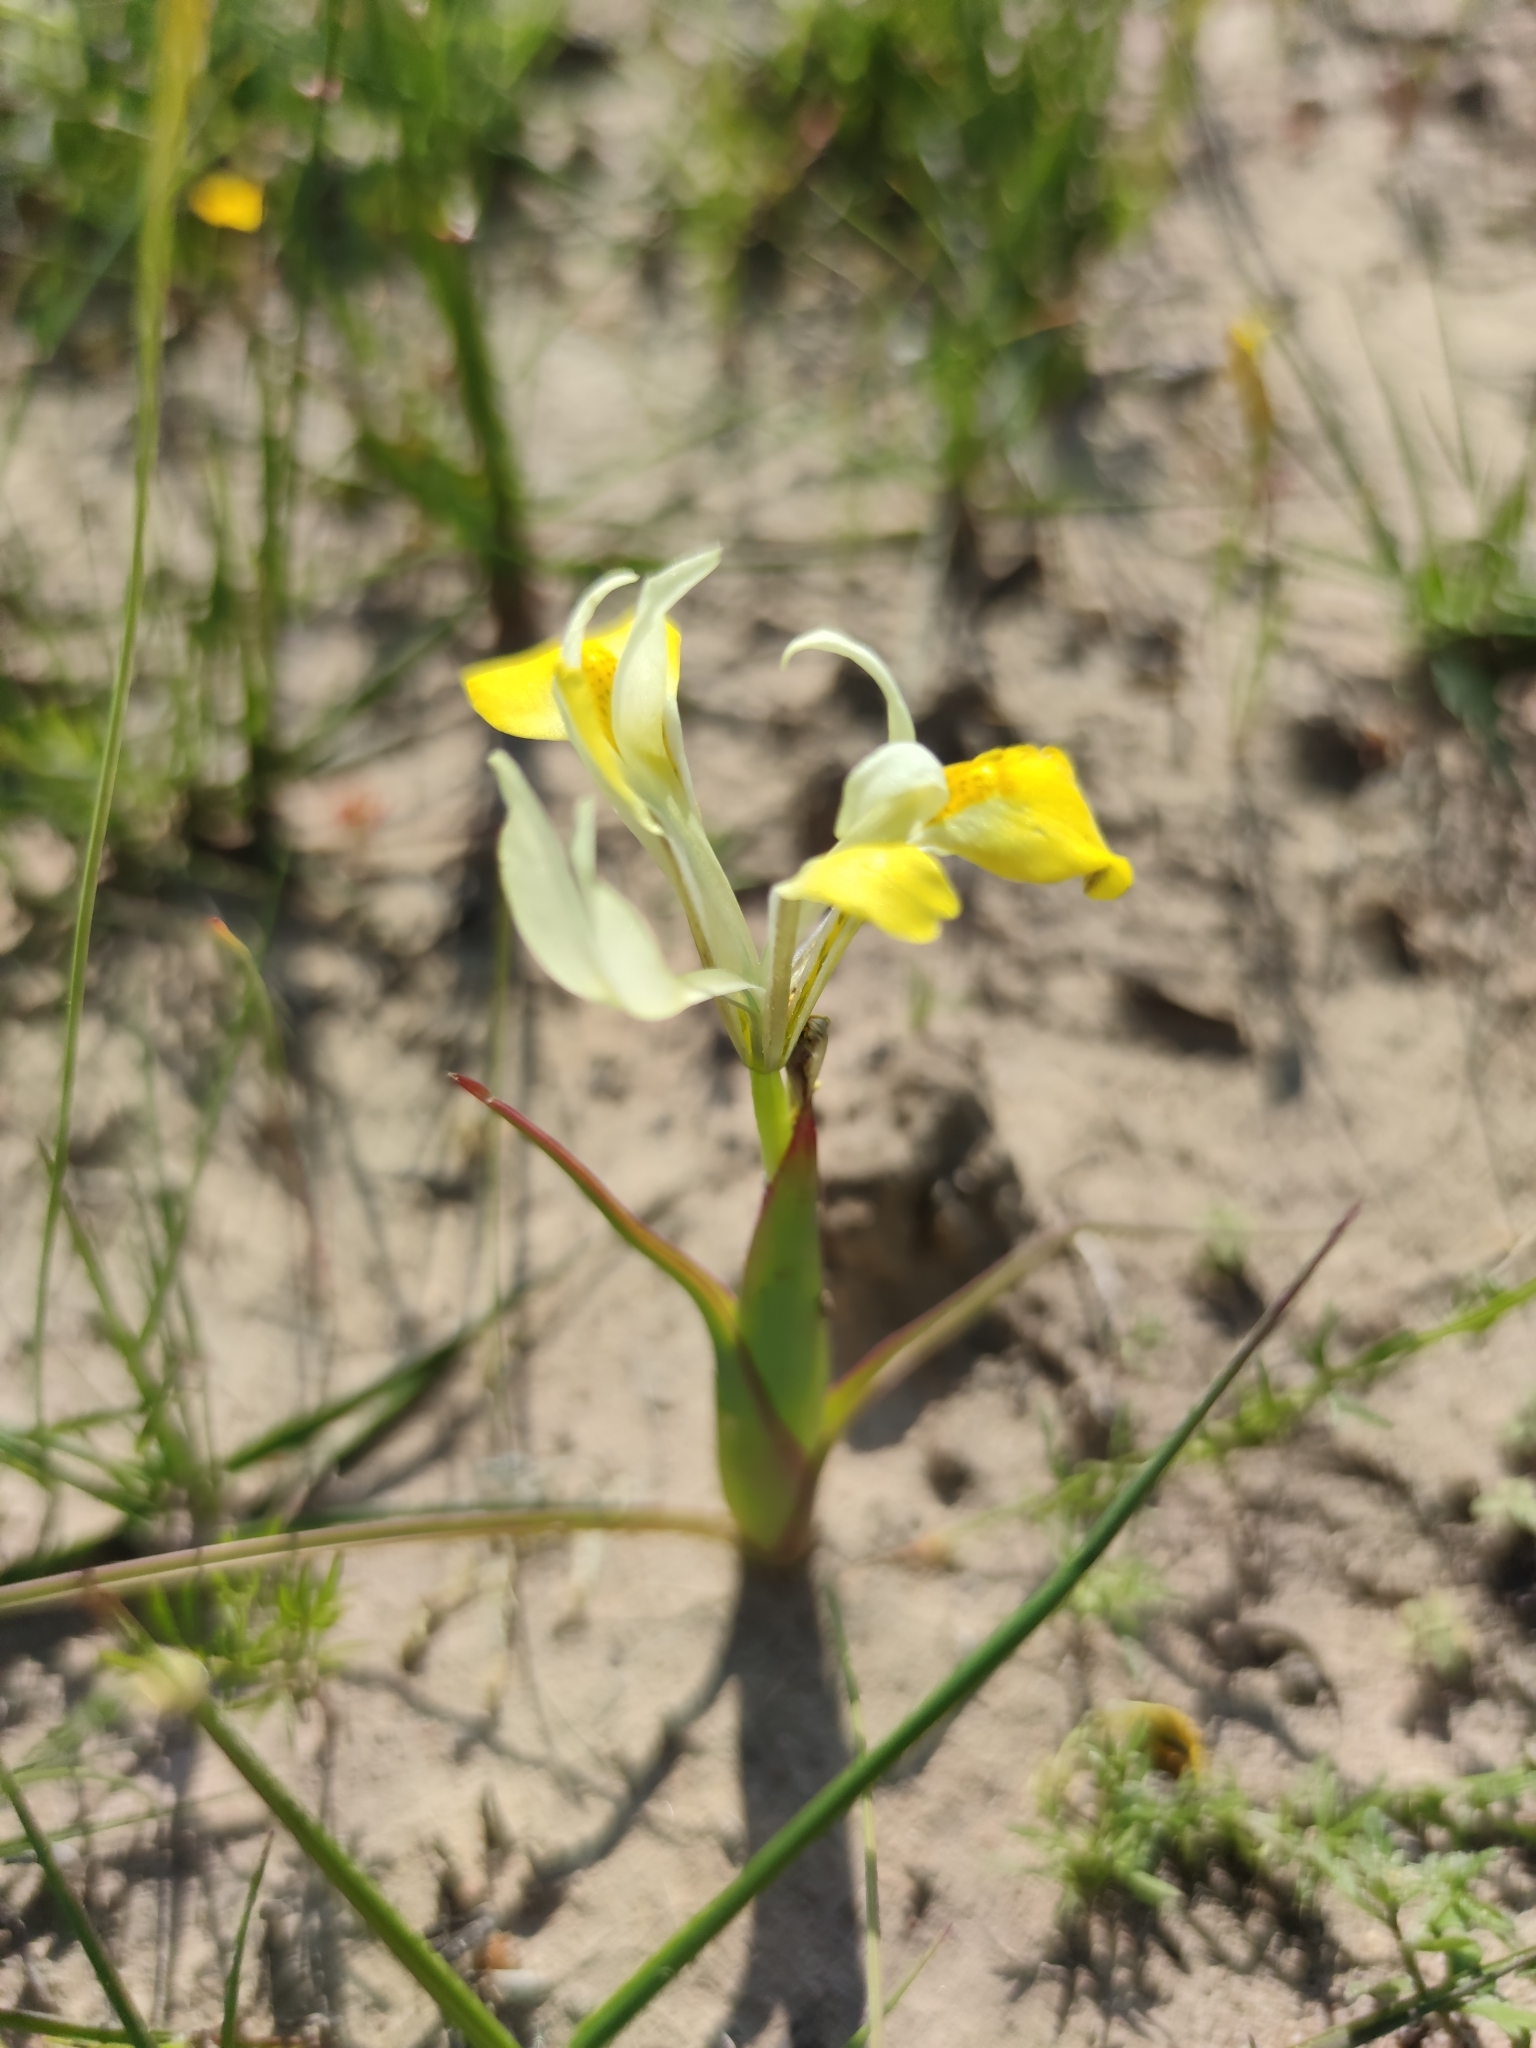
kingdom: Plantae
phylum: Tracheophyta
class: Liliopsida
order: Asparagales
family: Iridaceae
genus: Moraea
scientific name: Moraea macronyx
